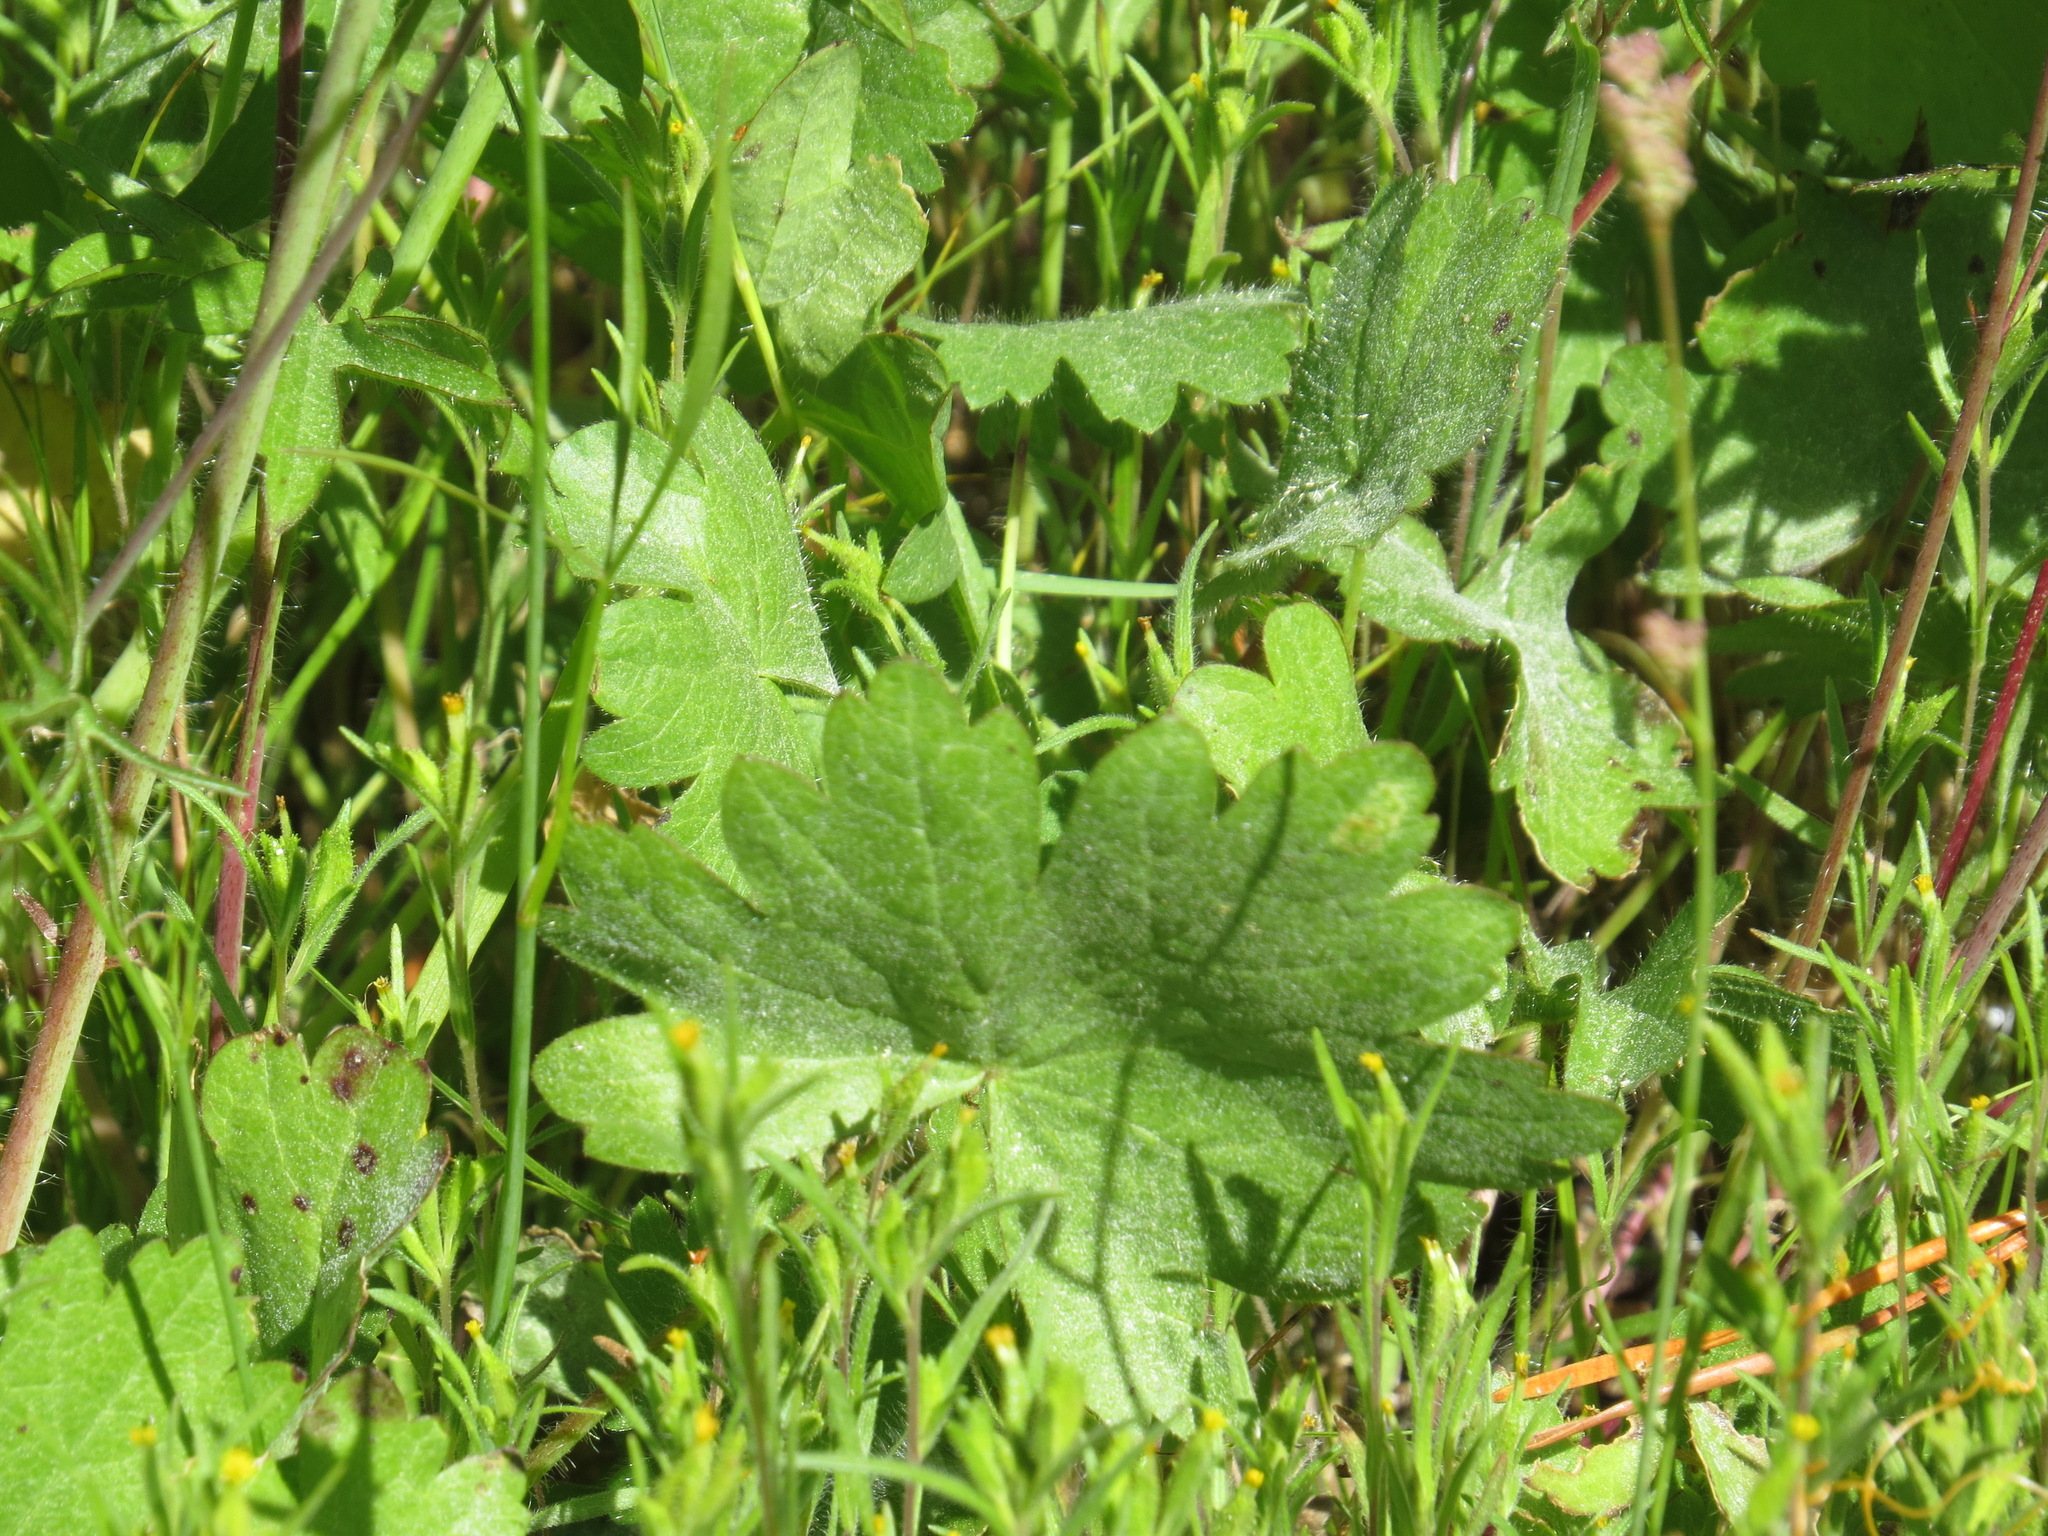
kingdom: Plantae
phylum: Tracheophyta
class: Magnoliopsida
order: Malvales
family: Malvaceae
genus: Sidalcea
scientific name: Sidalcea oregana
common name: Oregon checker-mallow
